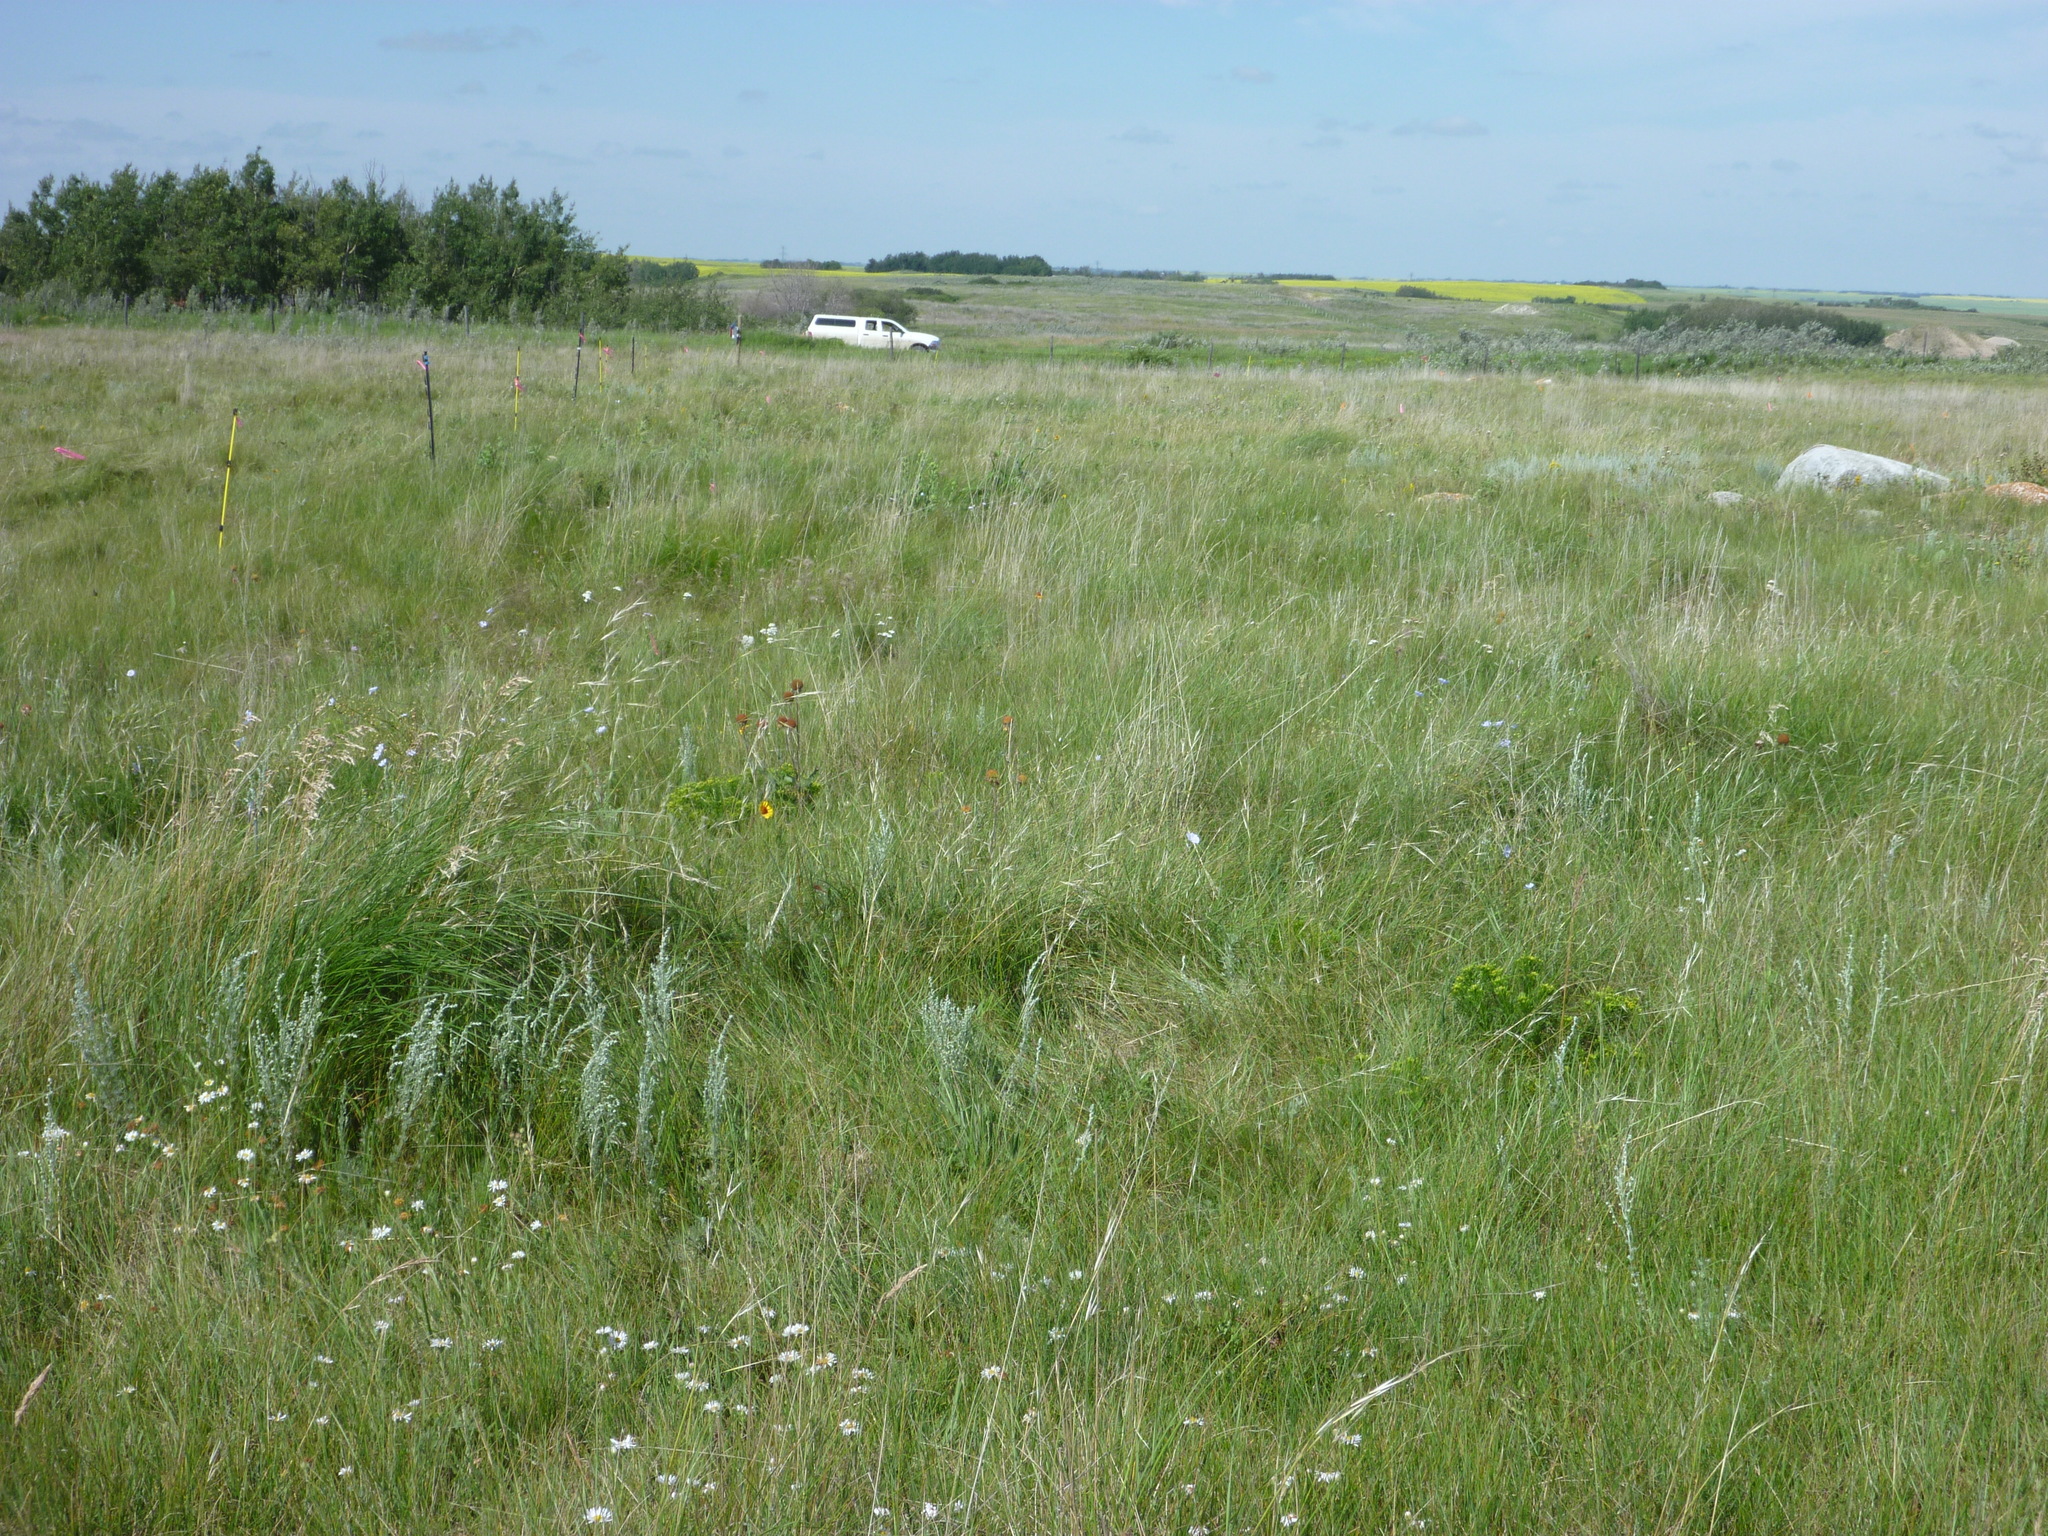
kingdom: Plantae
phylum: Tracheophyta
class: Magnoliopsida
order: Asterales
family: Asteraceae
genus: Artemisia
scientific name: Artemisia frigida
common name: Prairie sagewort
